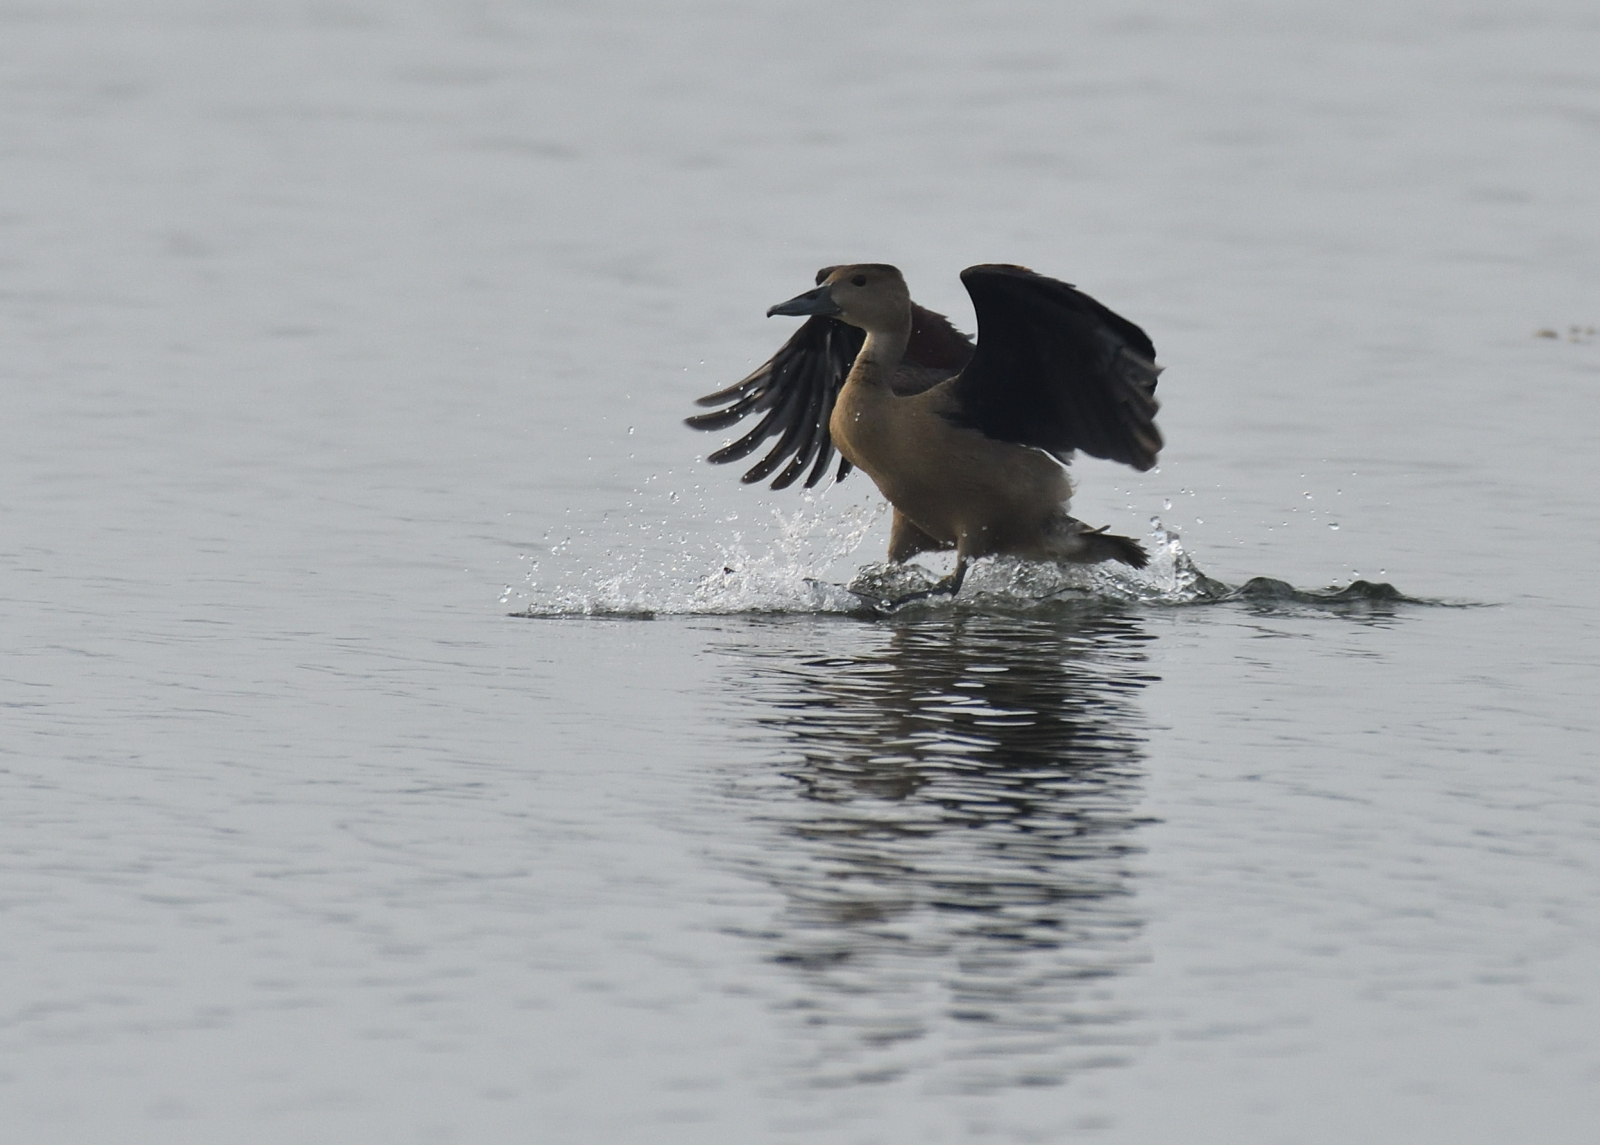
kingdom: Animalia
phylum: Chordata
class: Aves
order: Anseriformes
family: Anatidae
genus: Dendrocygna
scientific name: Dendrocygna javanica
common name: Lesser whistling-duck
